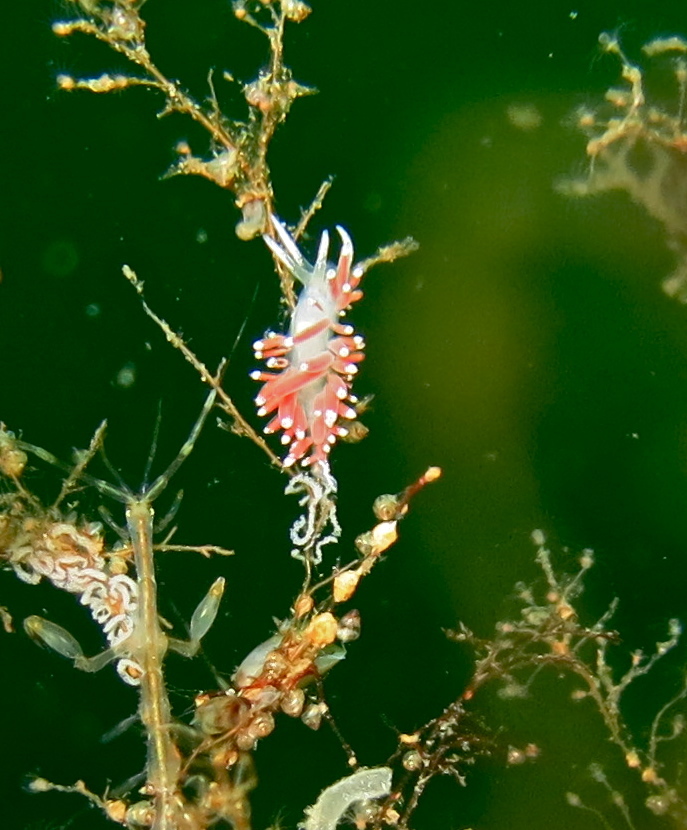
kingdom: Animalia
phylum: Mollusca
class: Gastropoda
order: Nudibranchia
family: Coryphellidae
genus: Coryphella
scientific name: Coryphella gracilis
